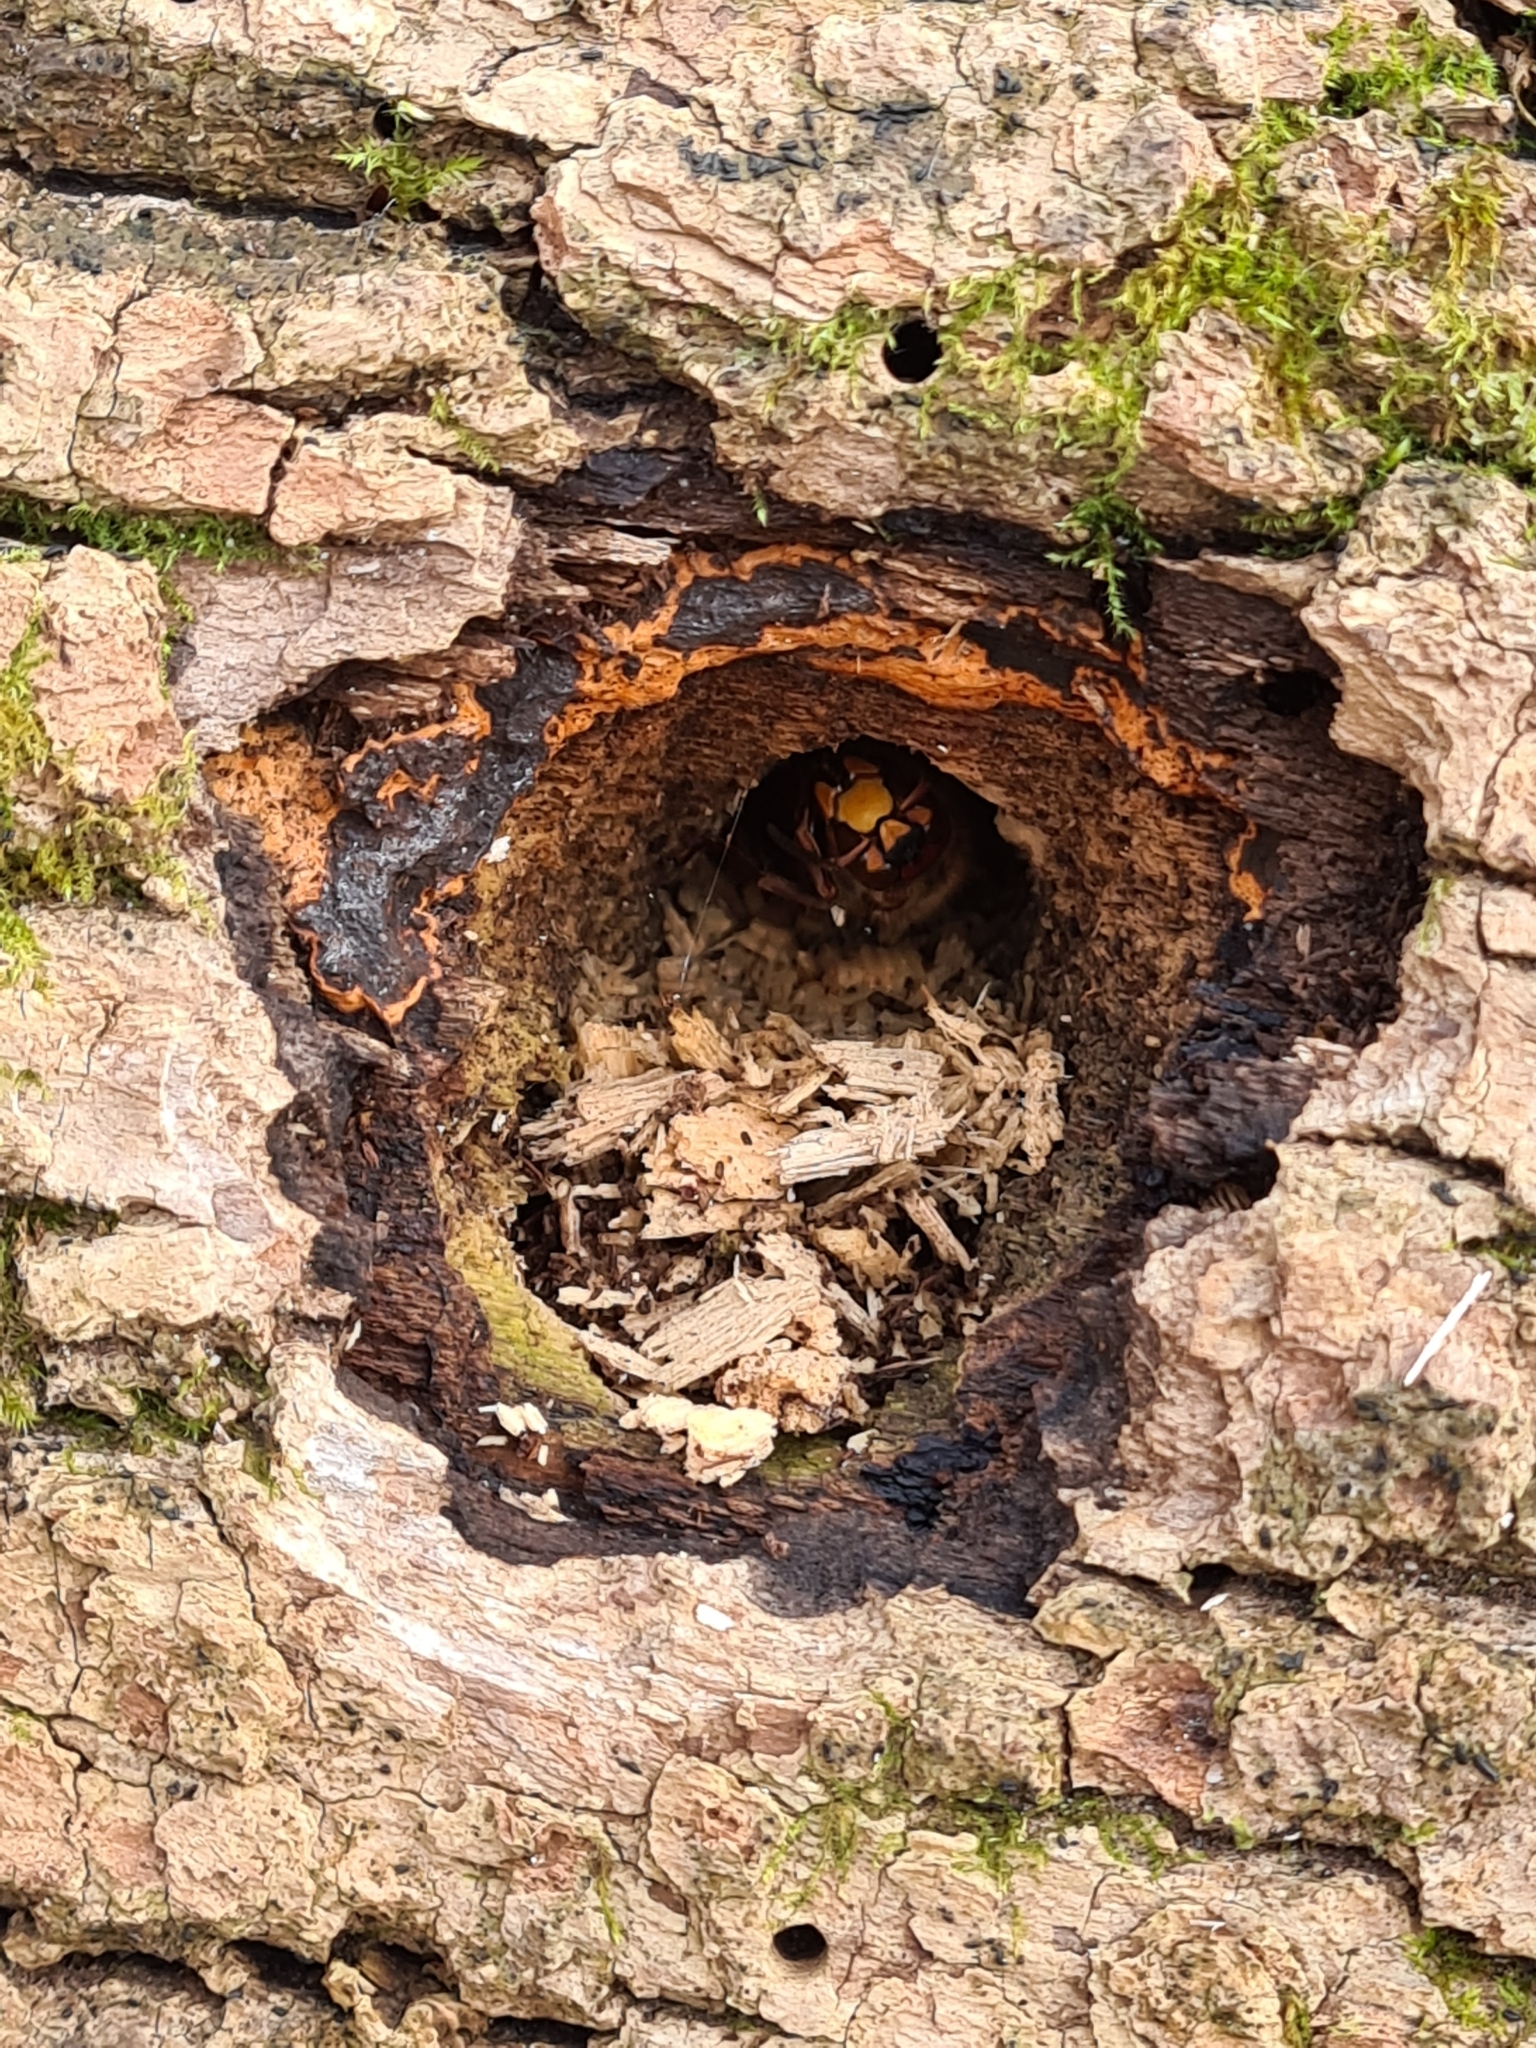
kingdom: Animalia
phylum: Arthropoda
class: Insecta
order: Hymenoptera
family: Vespidae
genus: Vespa
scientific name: Vespa crabro
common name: Hornet
